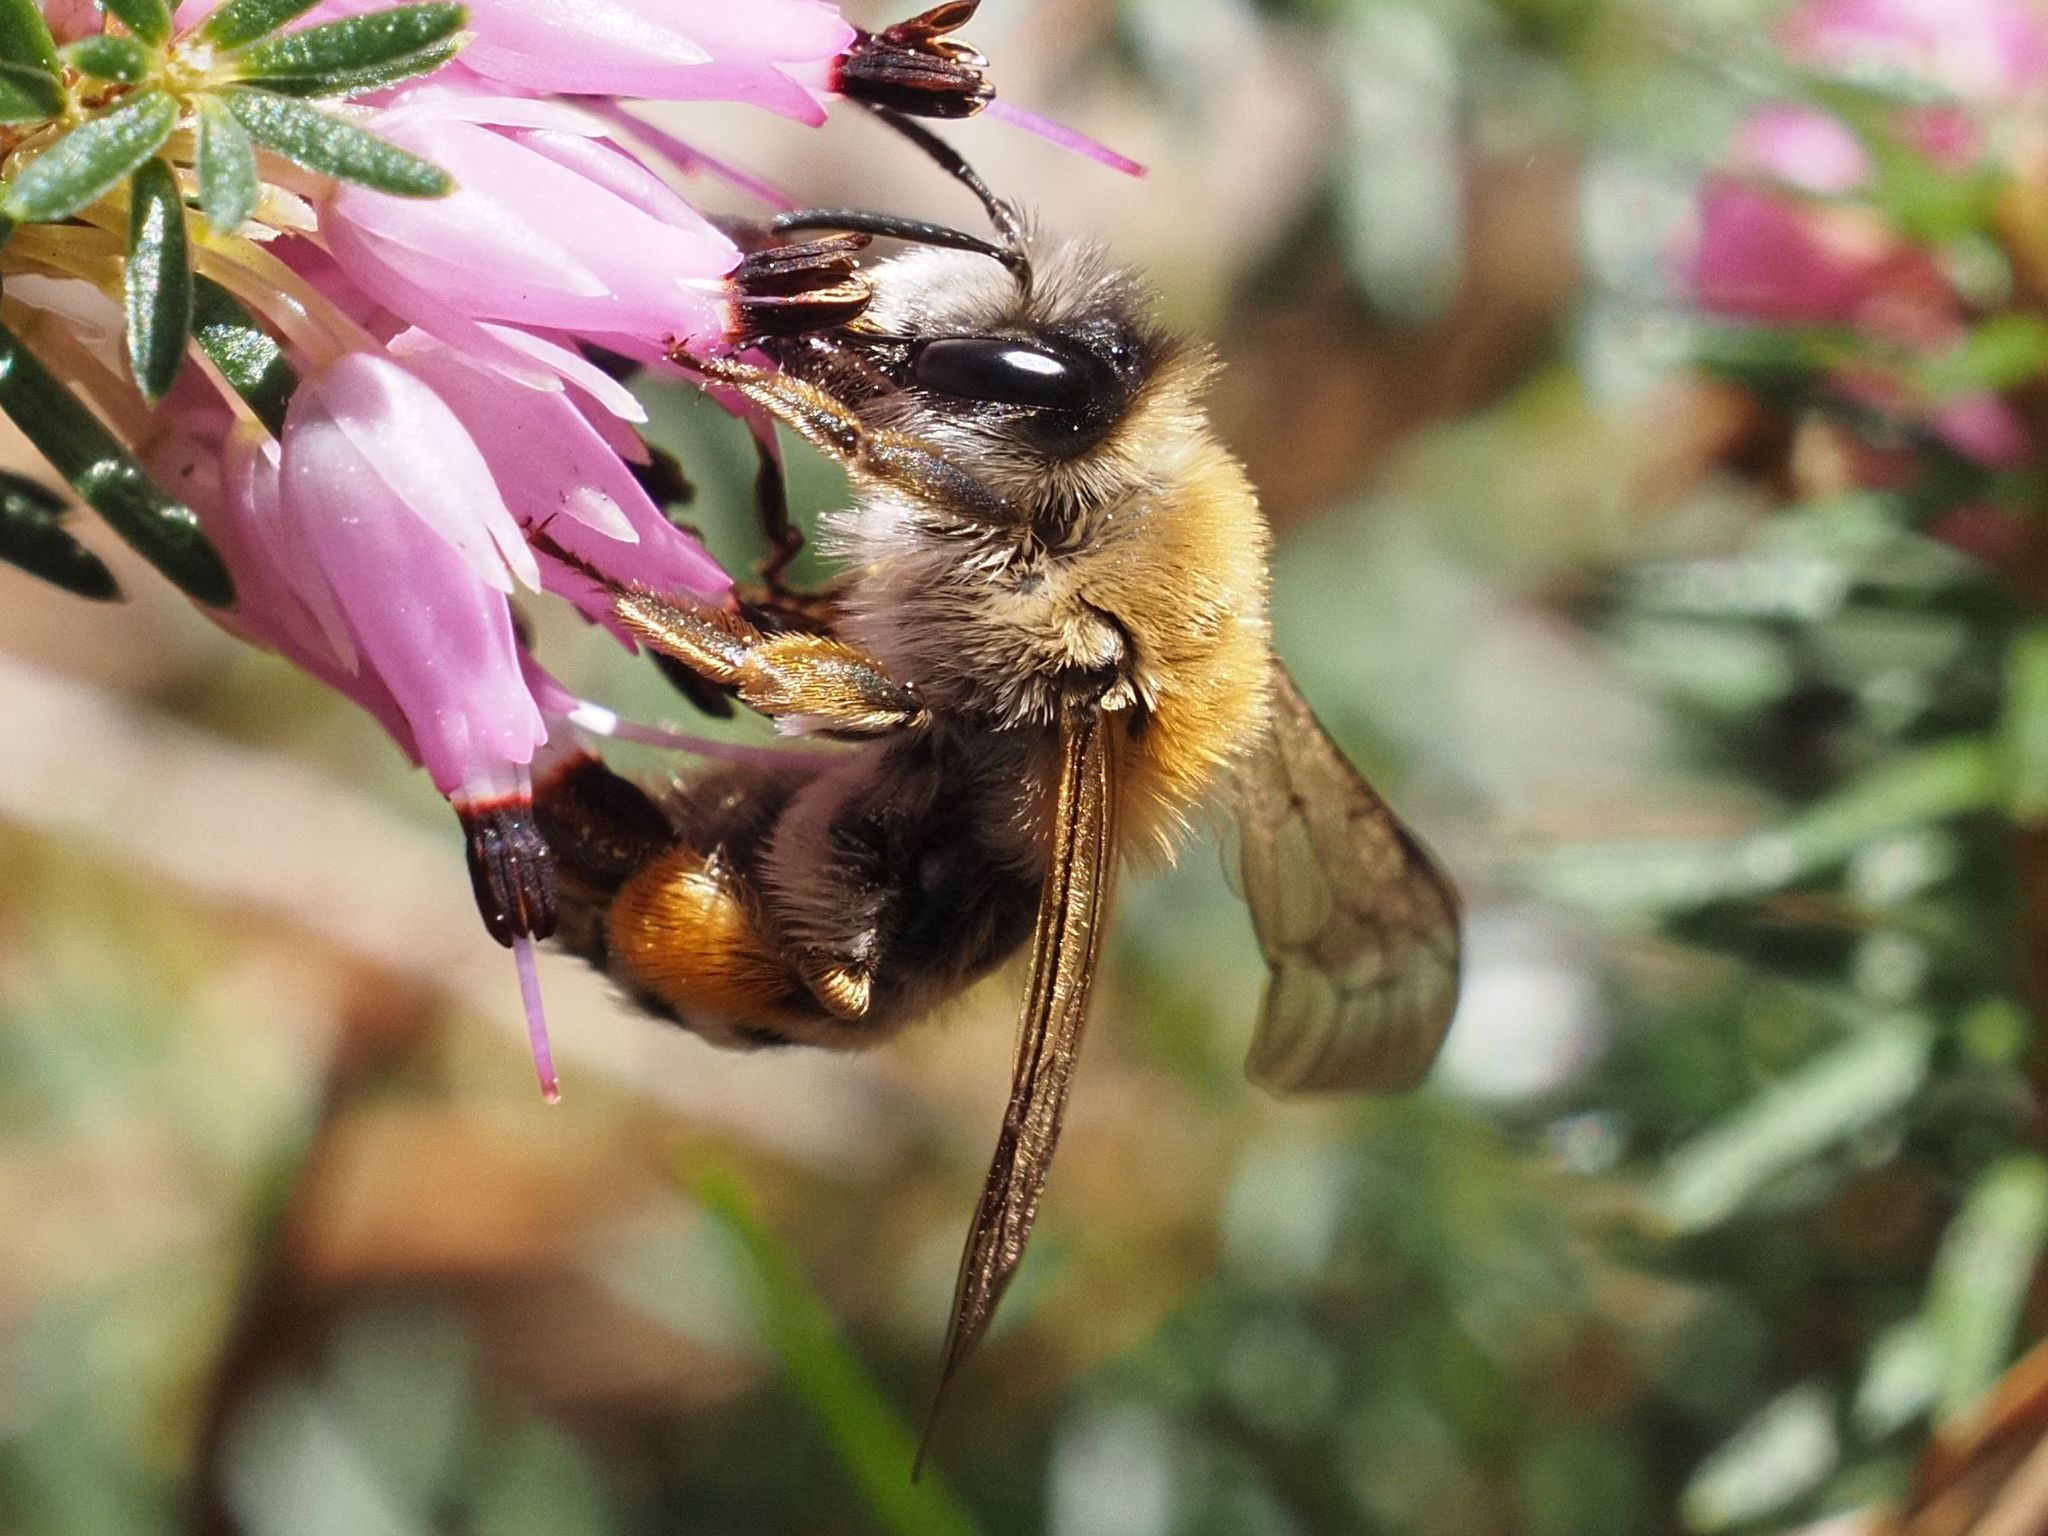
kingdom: Animalia
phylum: Arthropoda
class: Insecta
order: Hymenoptera
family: Andrenidae
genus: Andrena
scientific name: Andrena gravida
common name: White-bellied mining bee
